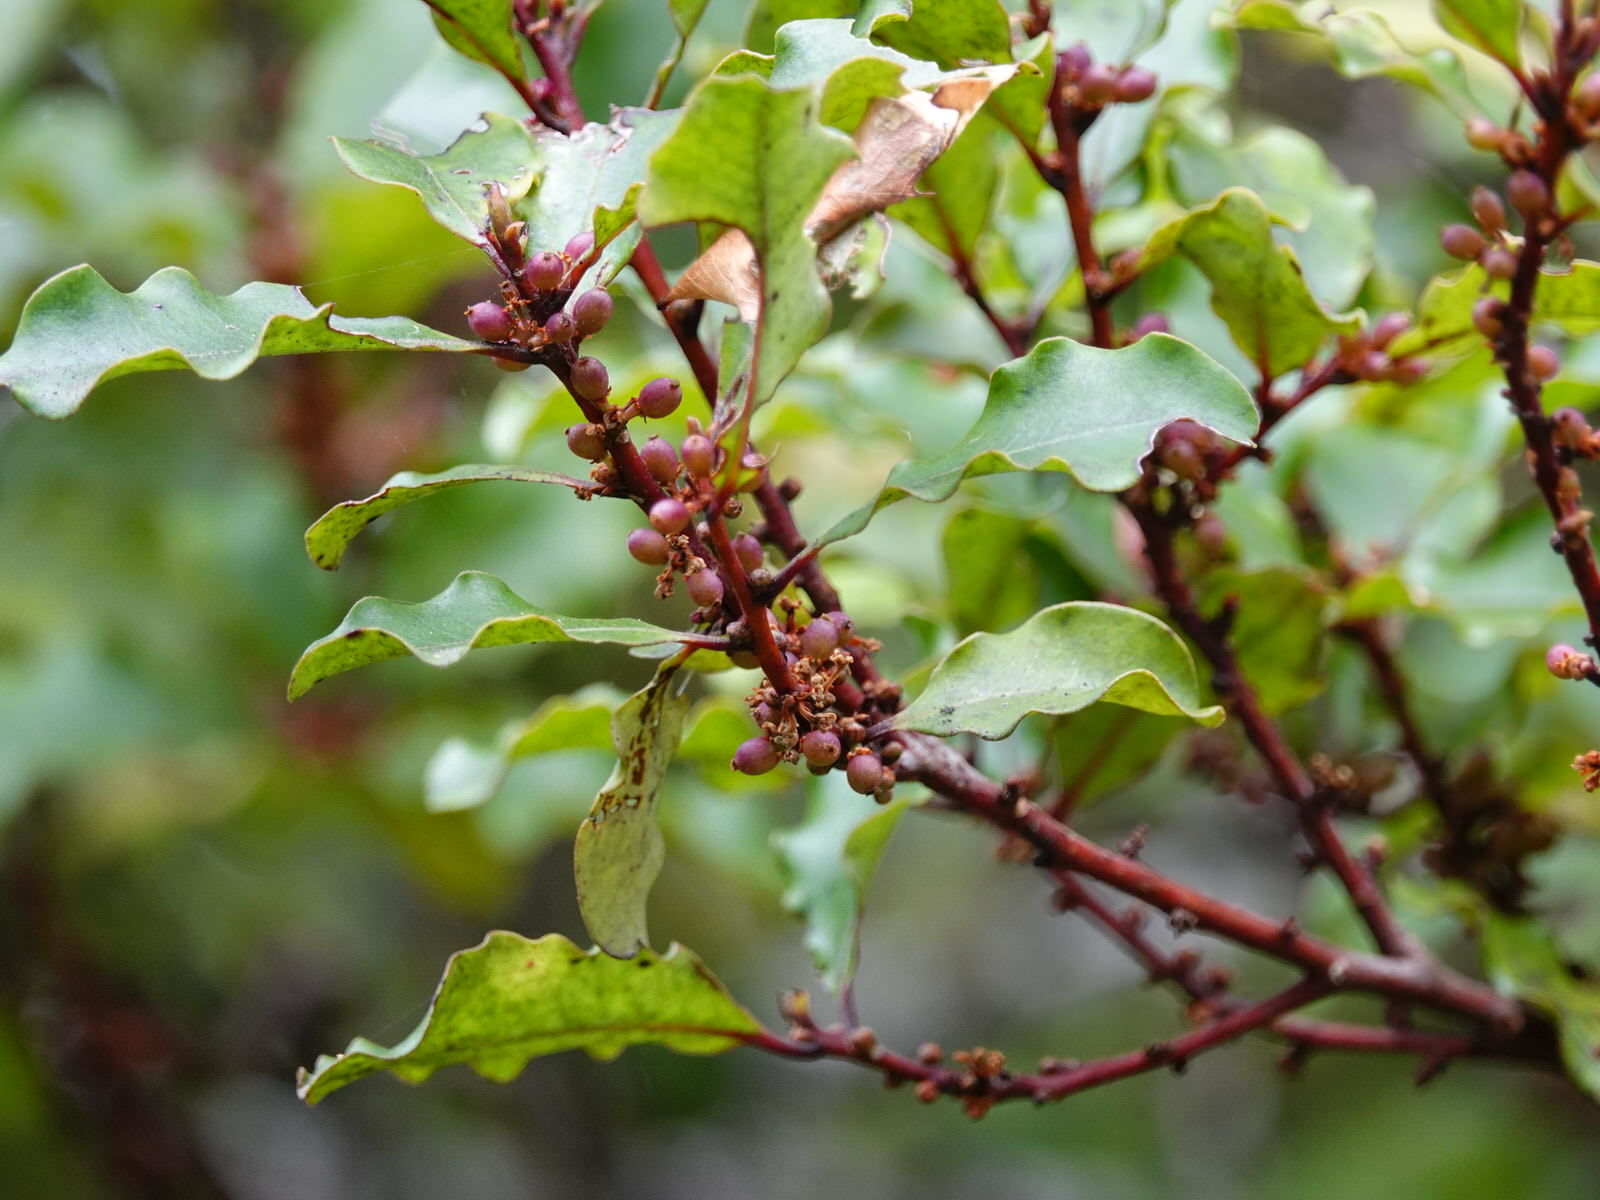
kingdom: Plantae
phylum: Tracheophyta
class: Magnoliopsida
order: Ericales
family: Primulaceae
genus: Myrsine
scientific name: Myrsine australis
